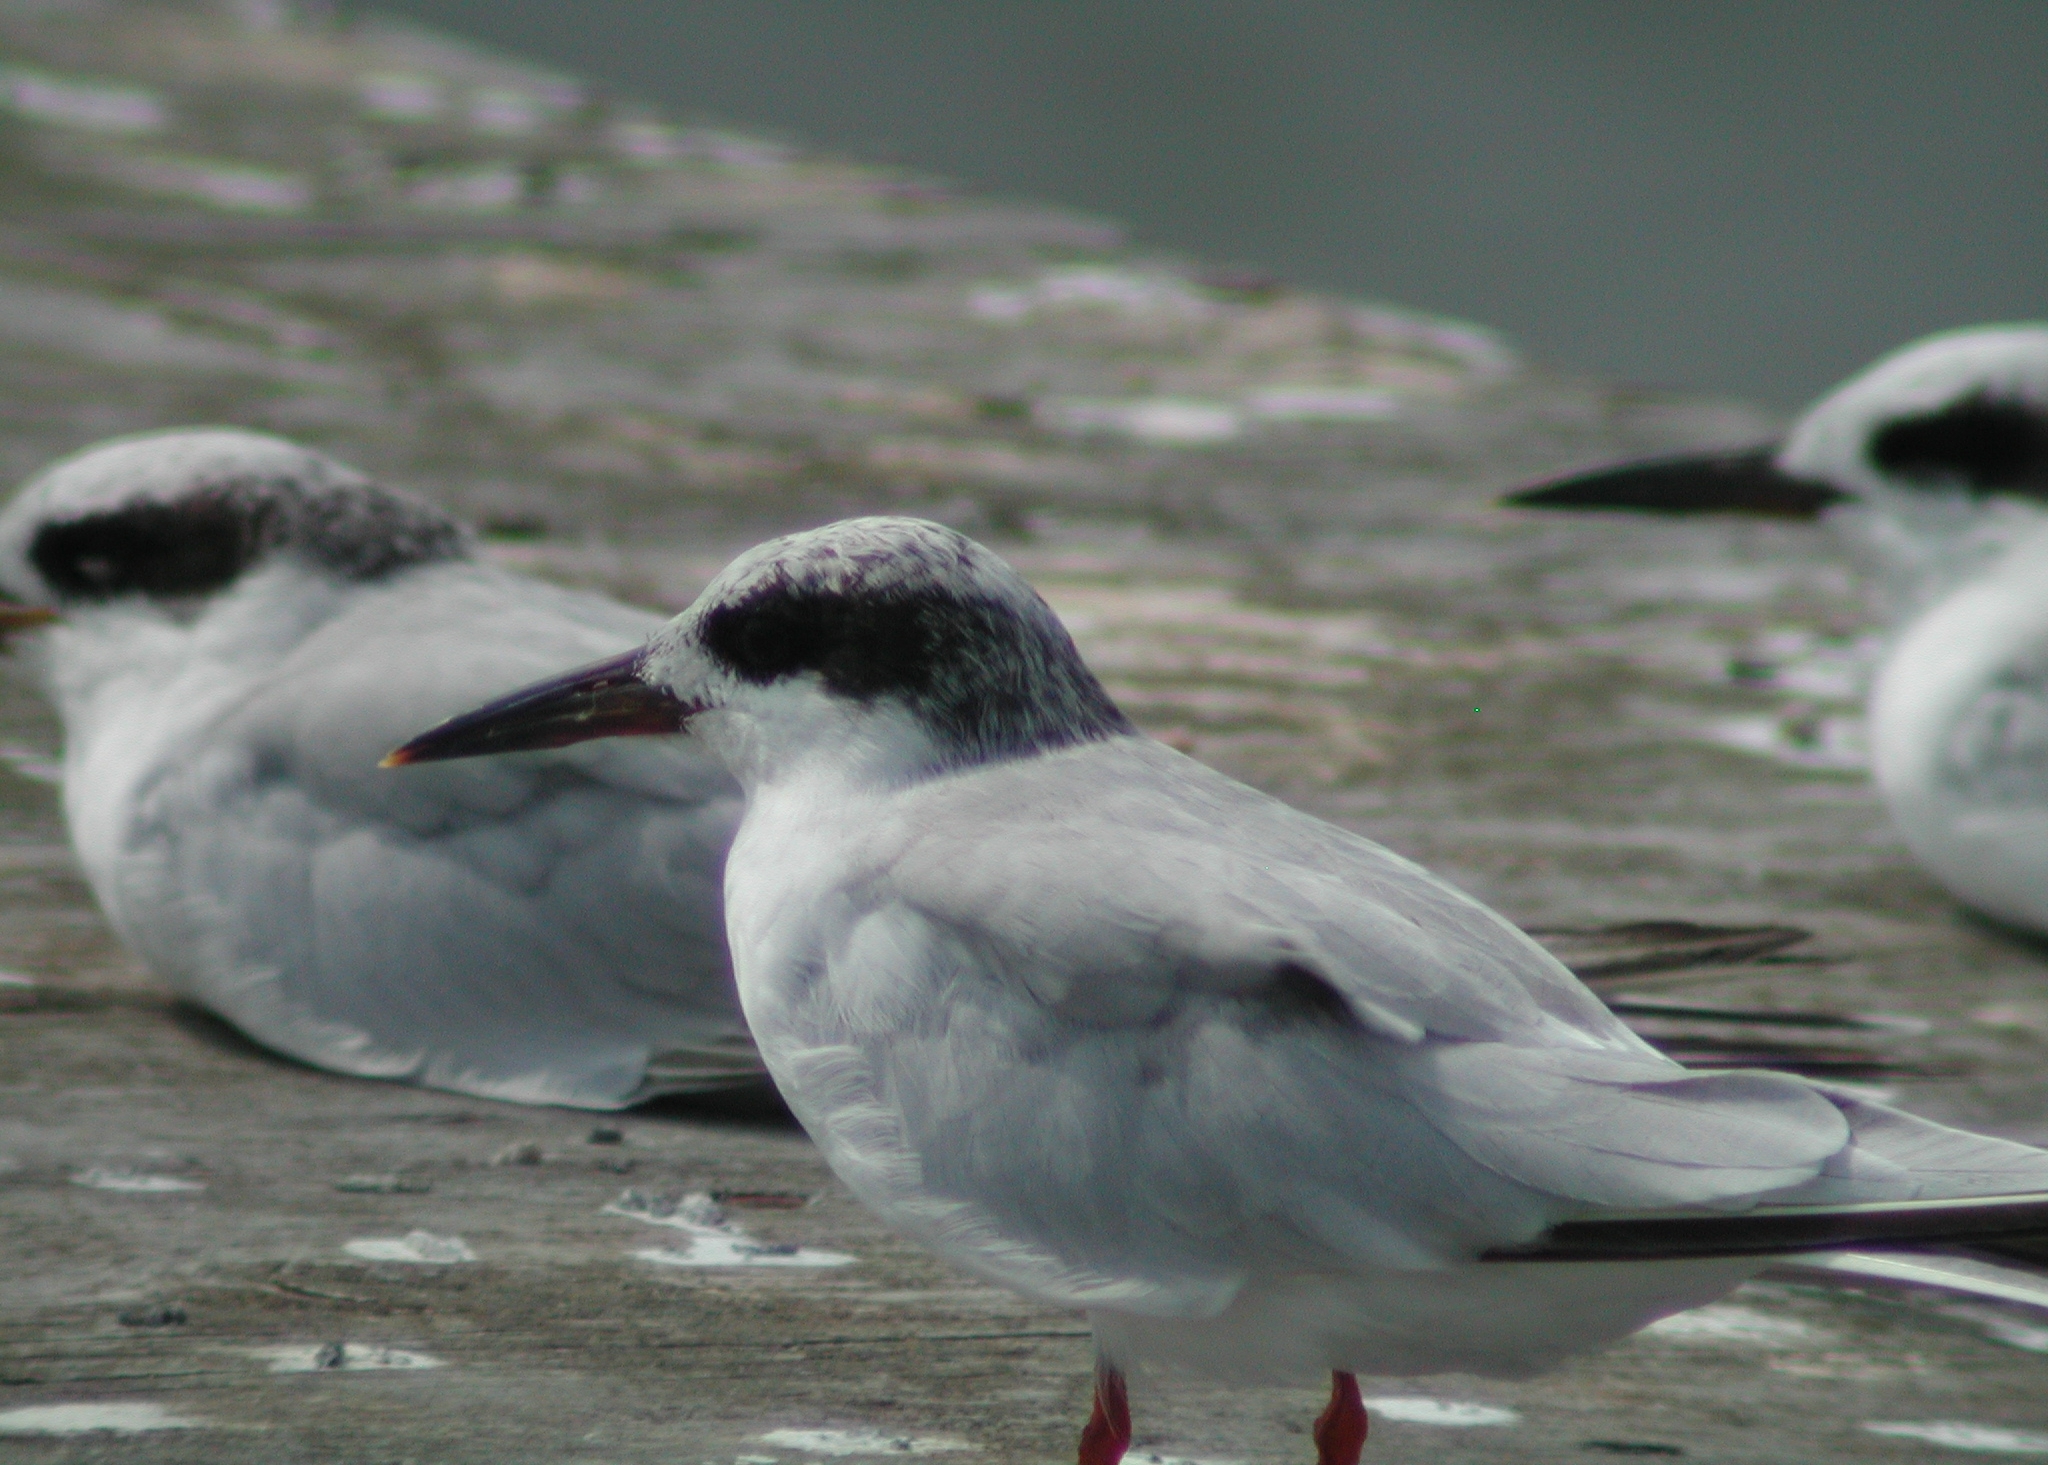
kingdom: Animalia
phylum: Chordata
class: Aves
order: Charadriiformes
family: Laridae
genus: Sterna
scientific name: Sterna forsteri
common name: Forster's tern
